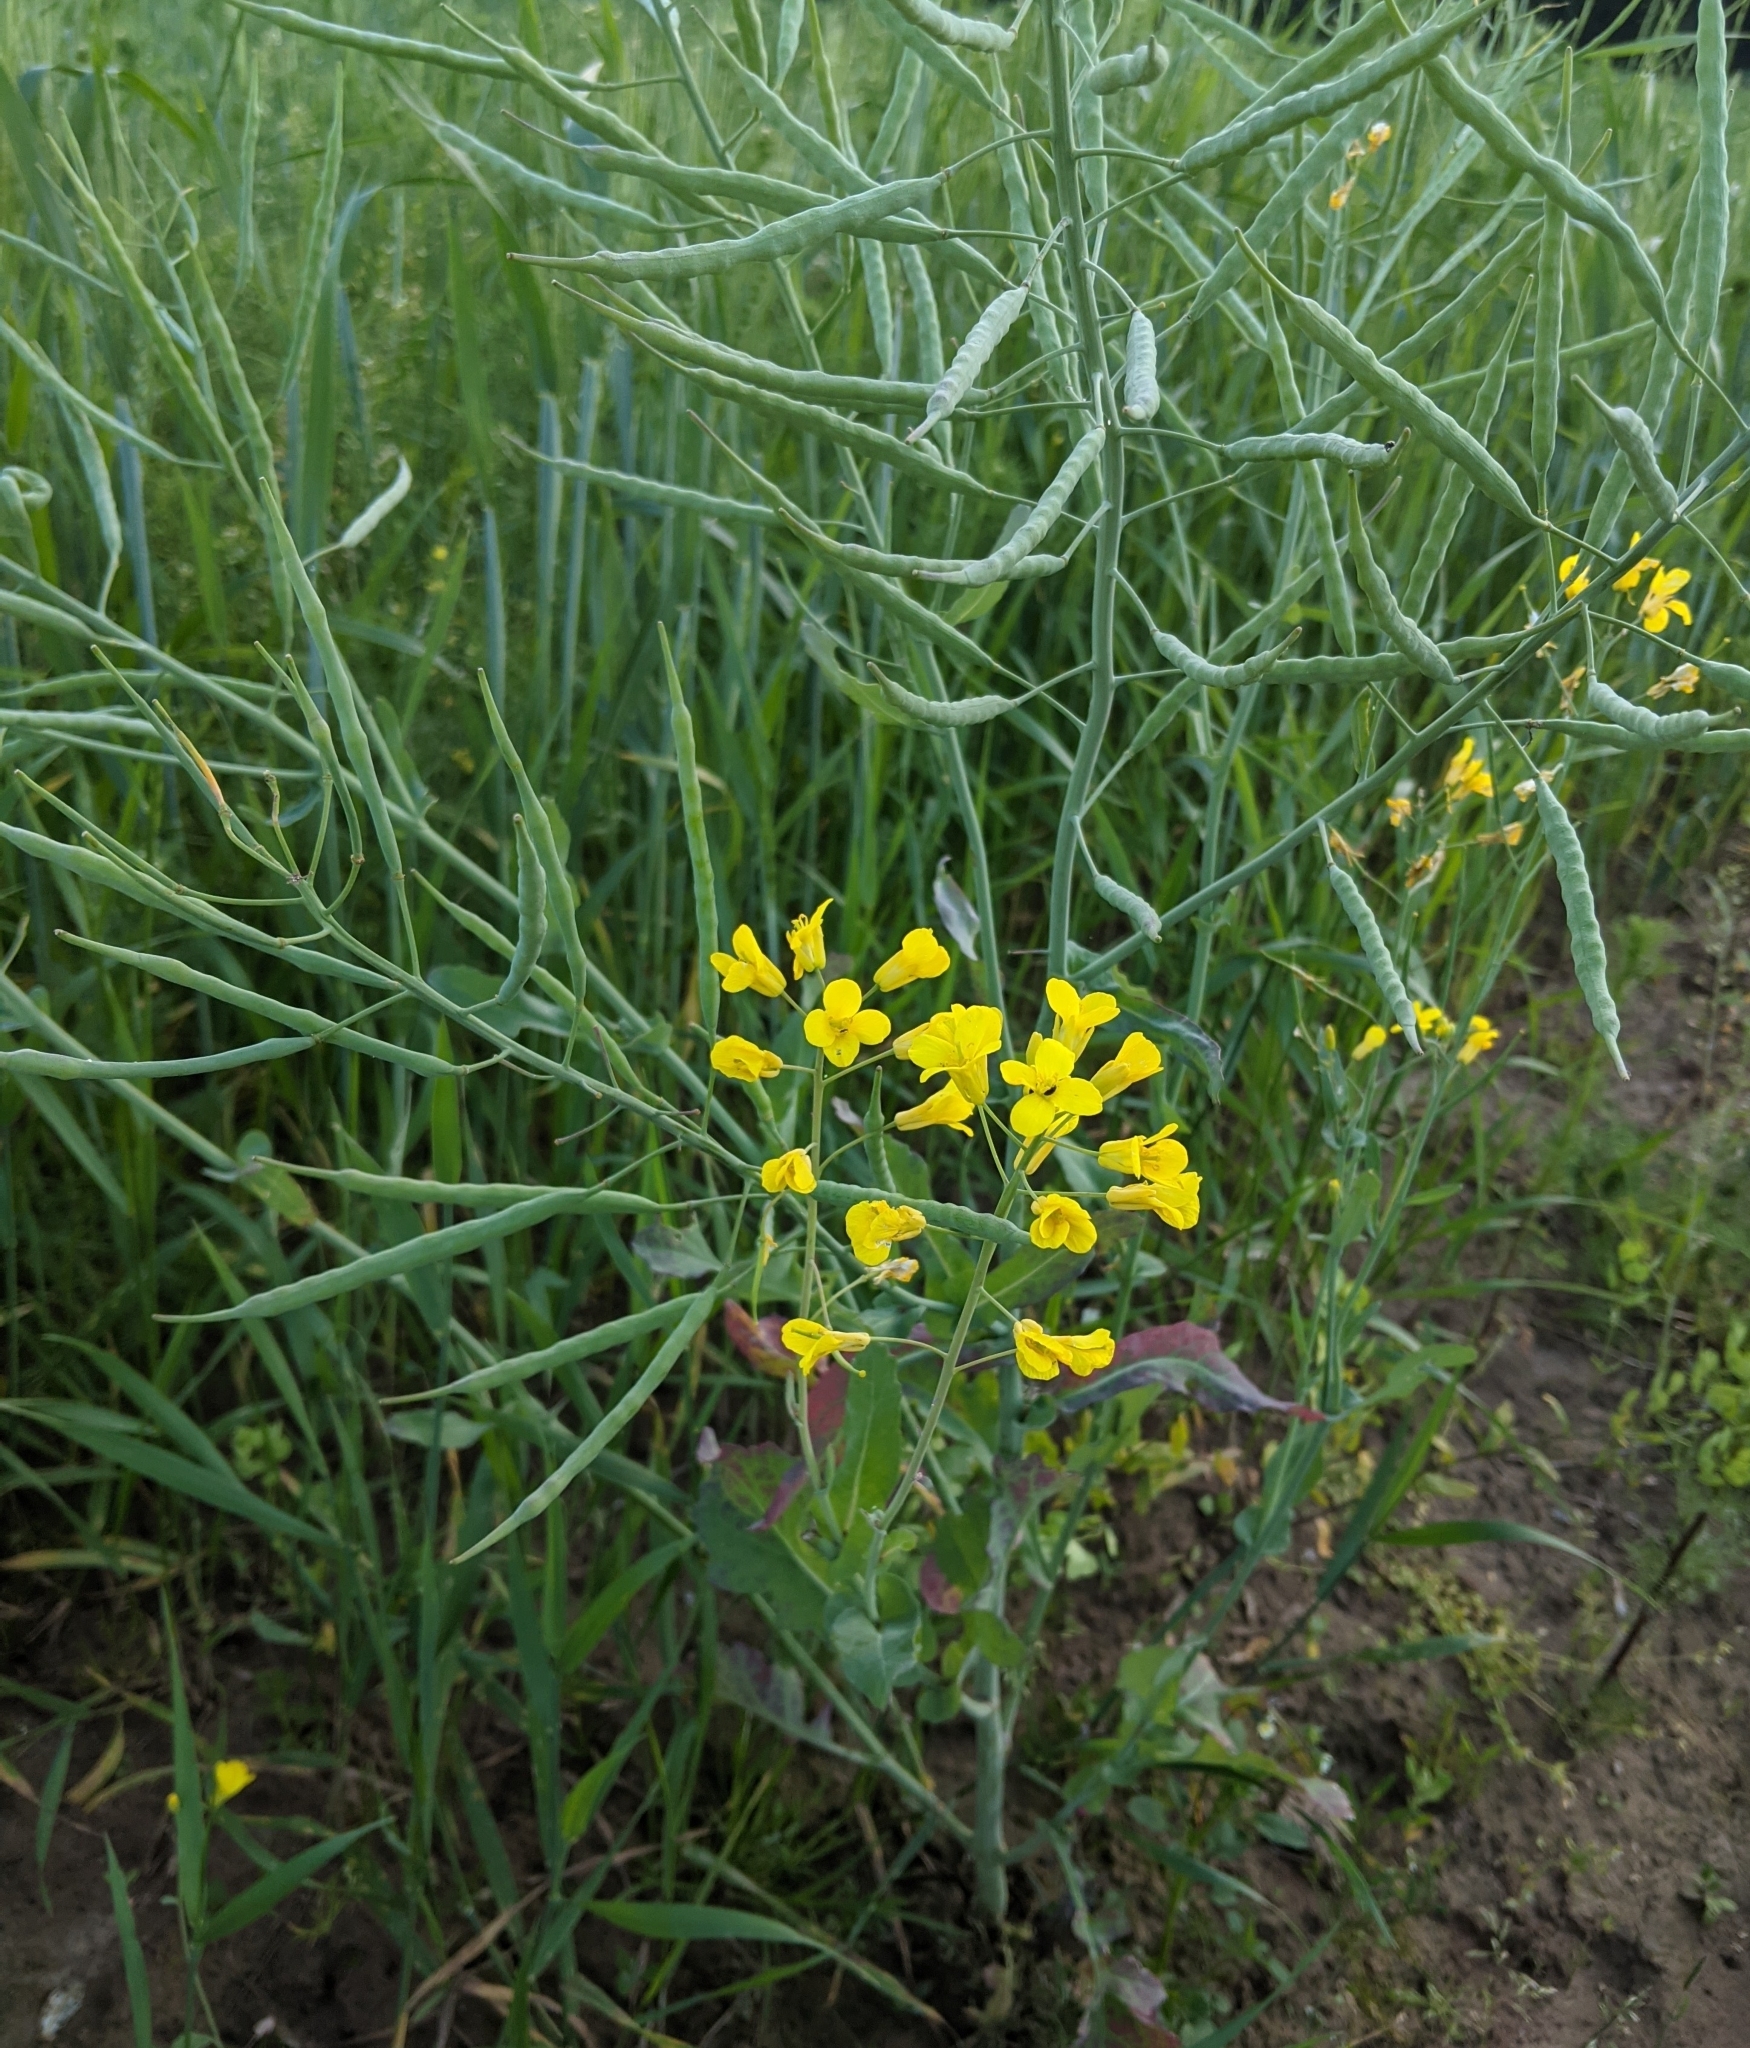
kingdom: Plantae
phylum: Tracheophyta
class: Magnoliopsida
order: Brassicales
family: Brassicaceae
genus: Brassica
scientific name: Brassica napus
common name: Rape
